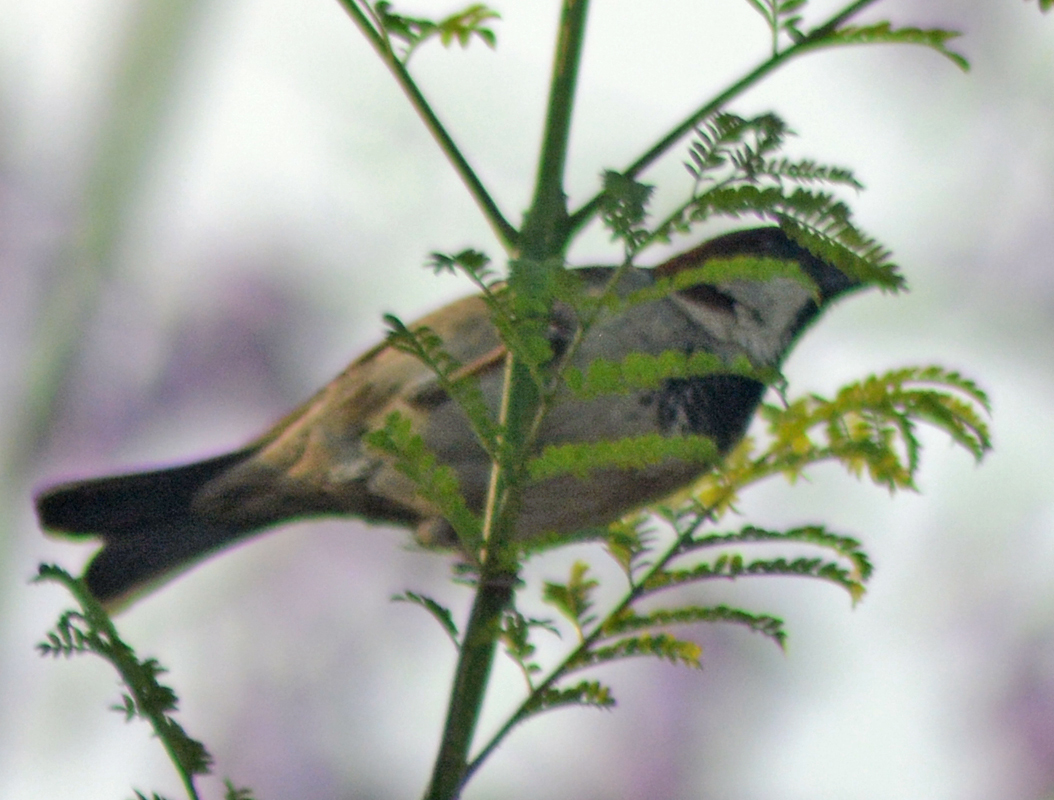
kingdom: Animalia
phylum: Chordata
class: Aves
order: Passeriformes
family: Passeridae
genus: Passer
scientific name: Passer domesticus
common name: House sparrow
